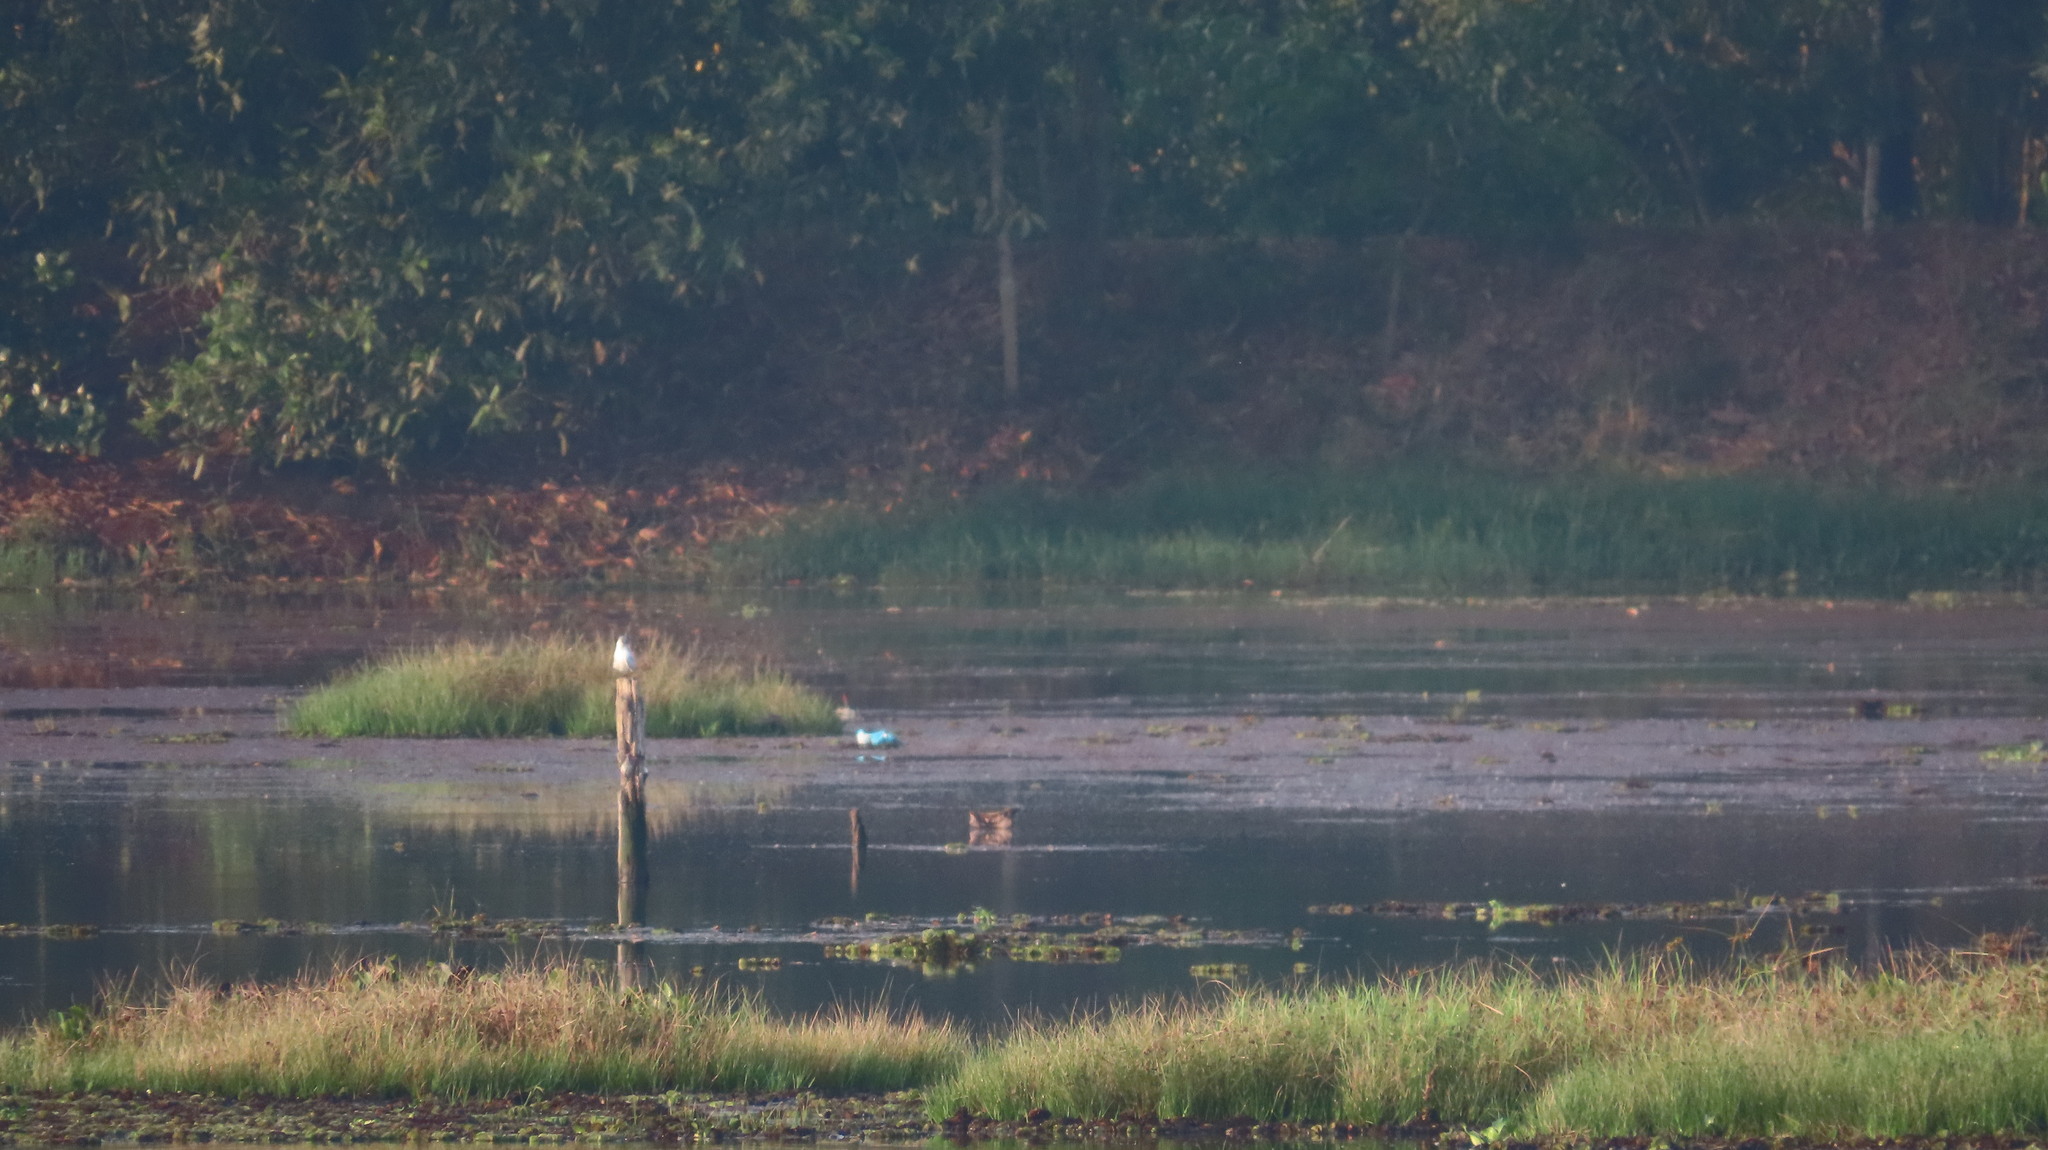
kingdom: Animalia
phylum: Chordata
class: Aves
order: Charadriiformes
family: Laridae
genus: Chlidonias
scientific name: Chlidonias hybrida
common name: Whiskered tern
